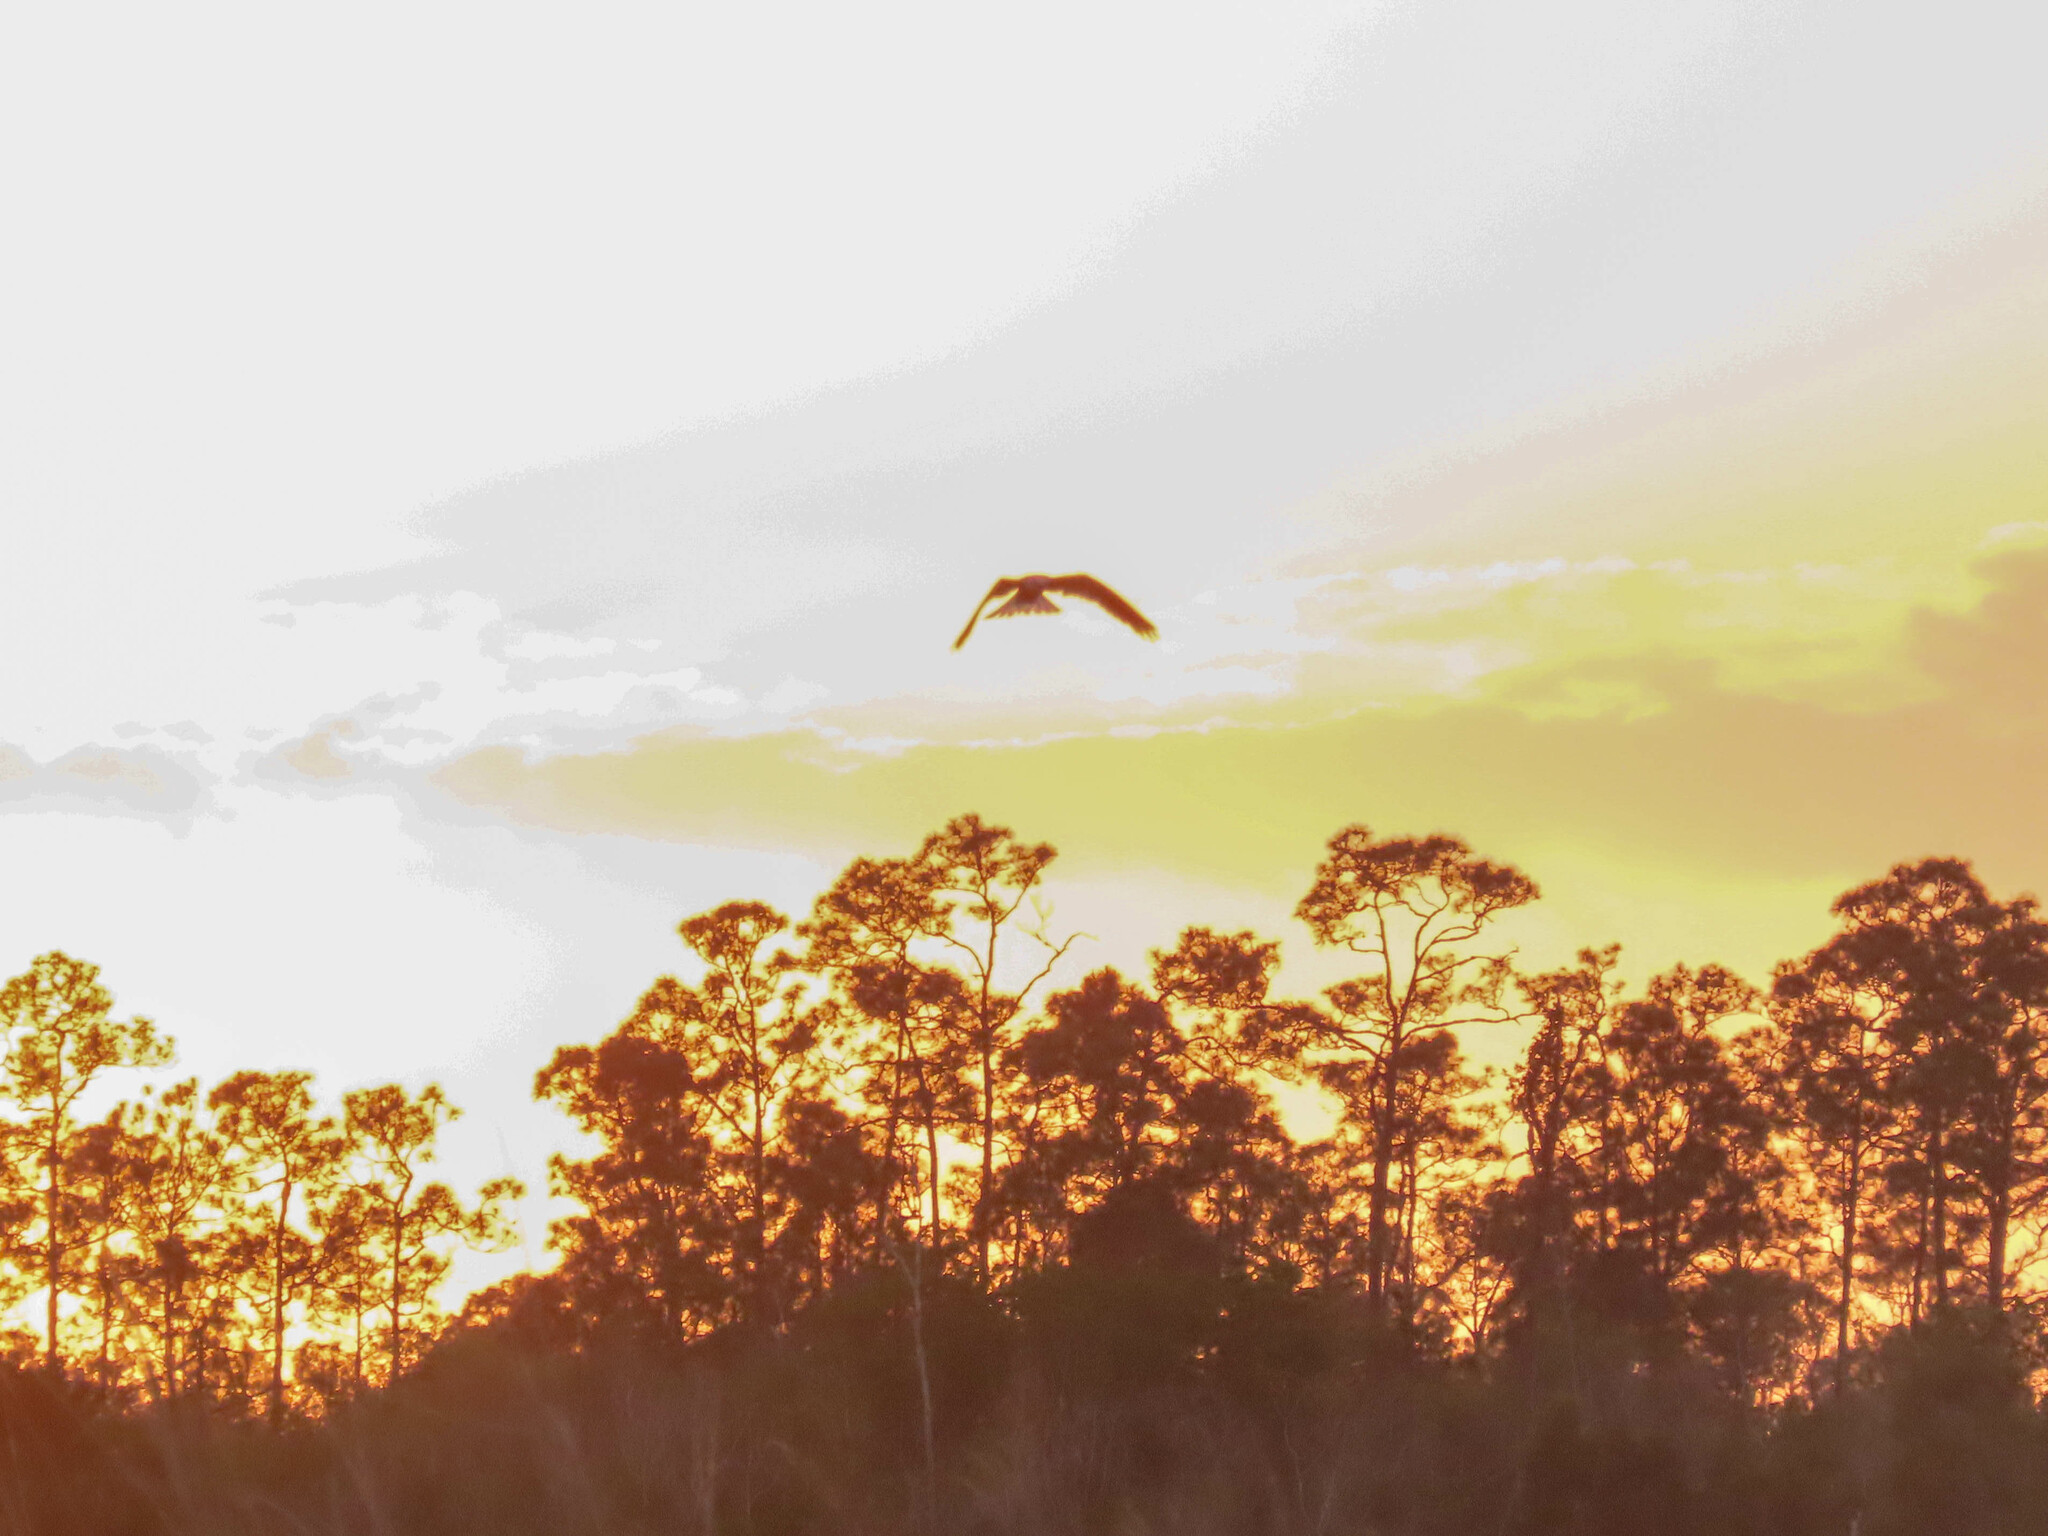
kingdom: Animalia
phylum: Chordata
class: Aves
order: Accipitriformes
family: Accipitridae
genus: Elanus
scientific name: Elanus leucurus
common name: White-tailed kite
